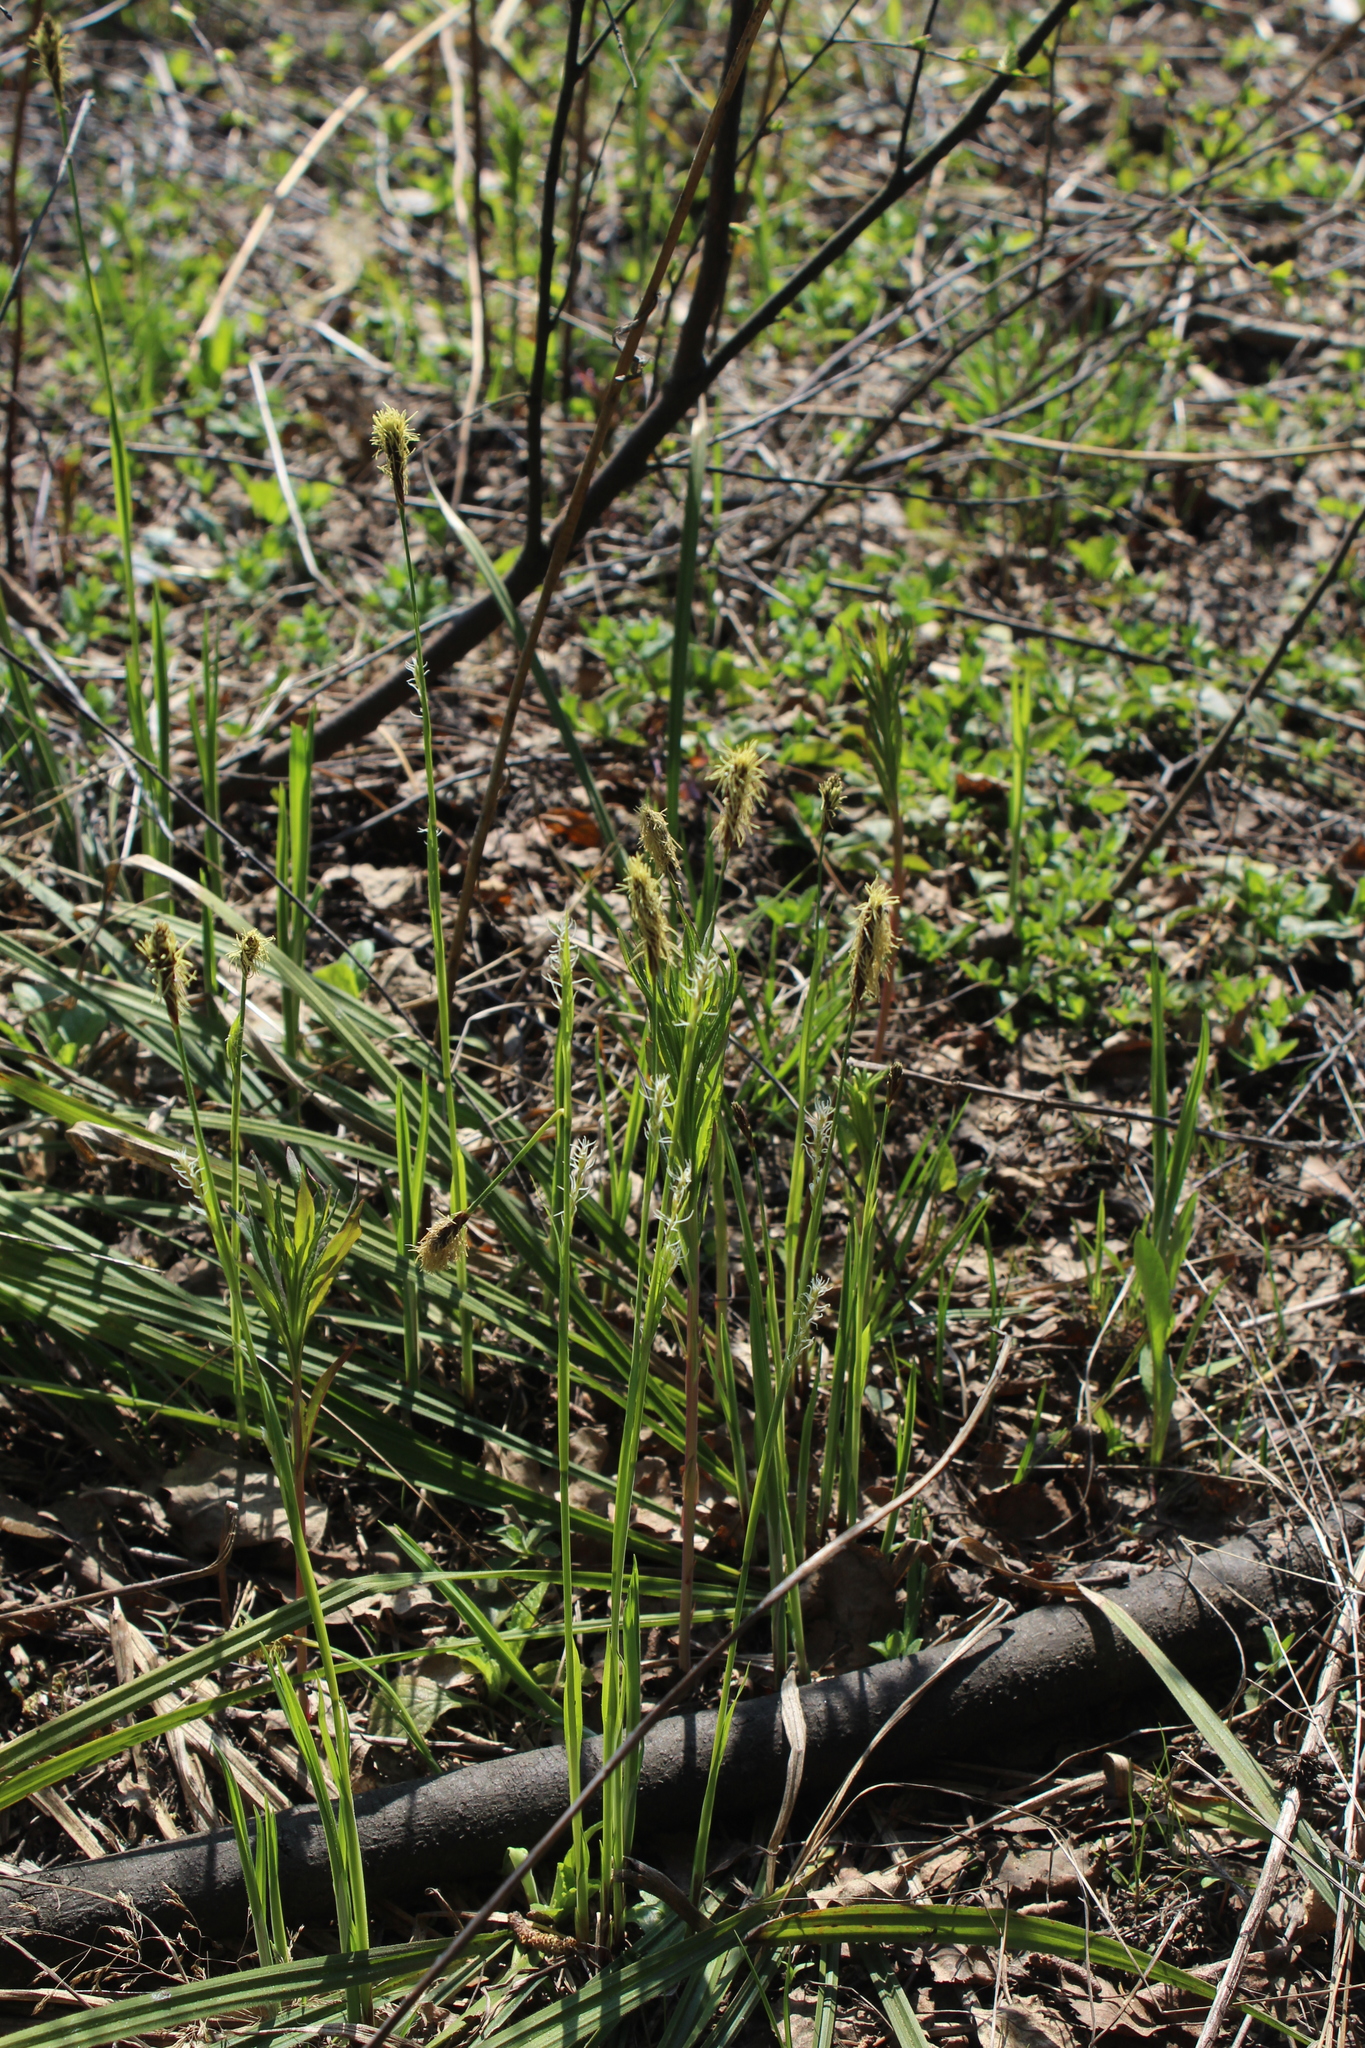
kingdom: Plantae
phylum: Tracheophyta
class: Liliopsida
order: Poales
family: Cyperaceae
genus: Carex
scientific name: Carex pilosa
